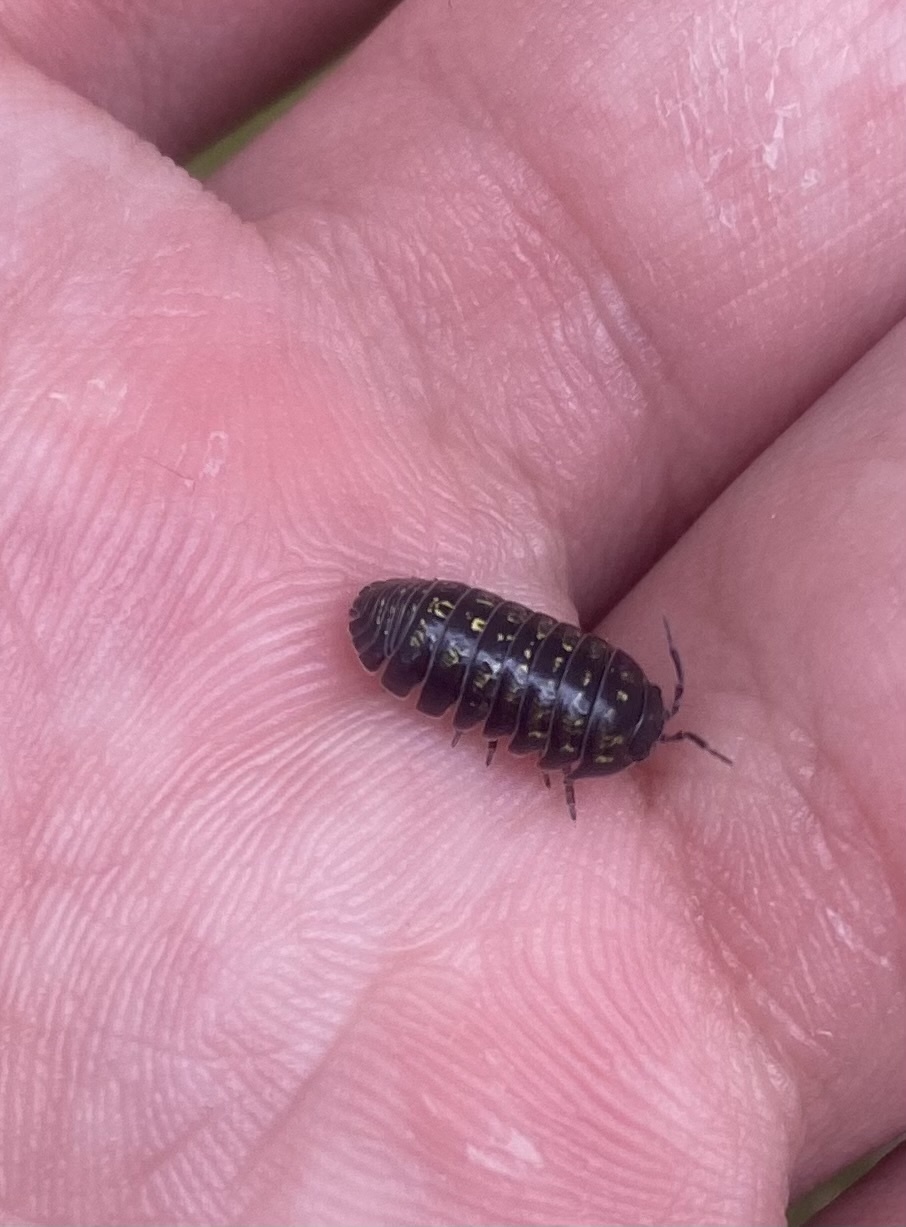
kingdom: Animalia
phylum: Arthropoda
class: Malacostraca
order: Isopoda
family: Armadillidiidae
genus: Armadillidium
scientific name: Armadillidium vulgare
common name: Common pill woodlouse
